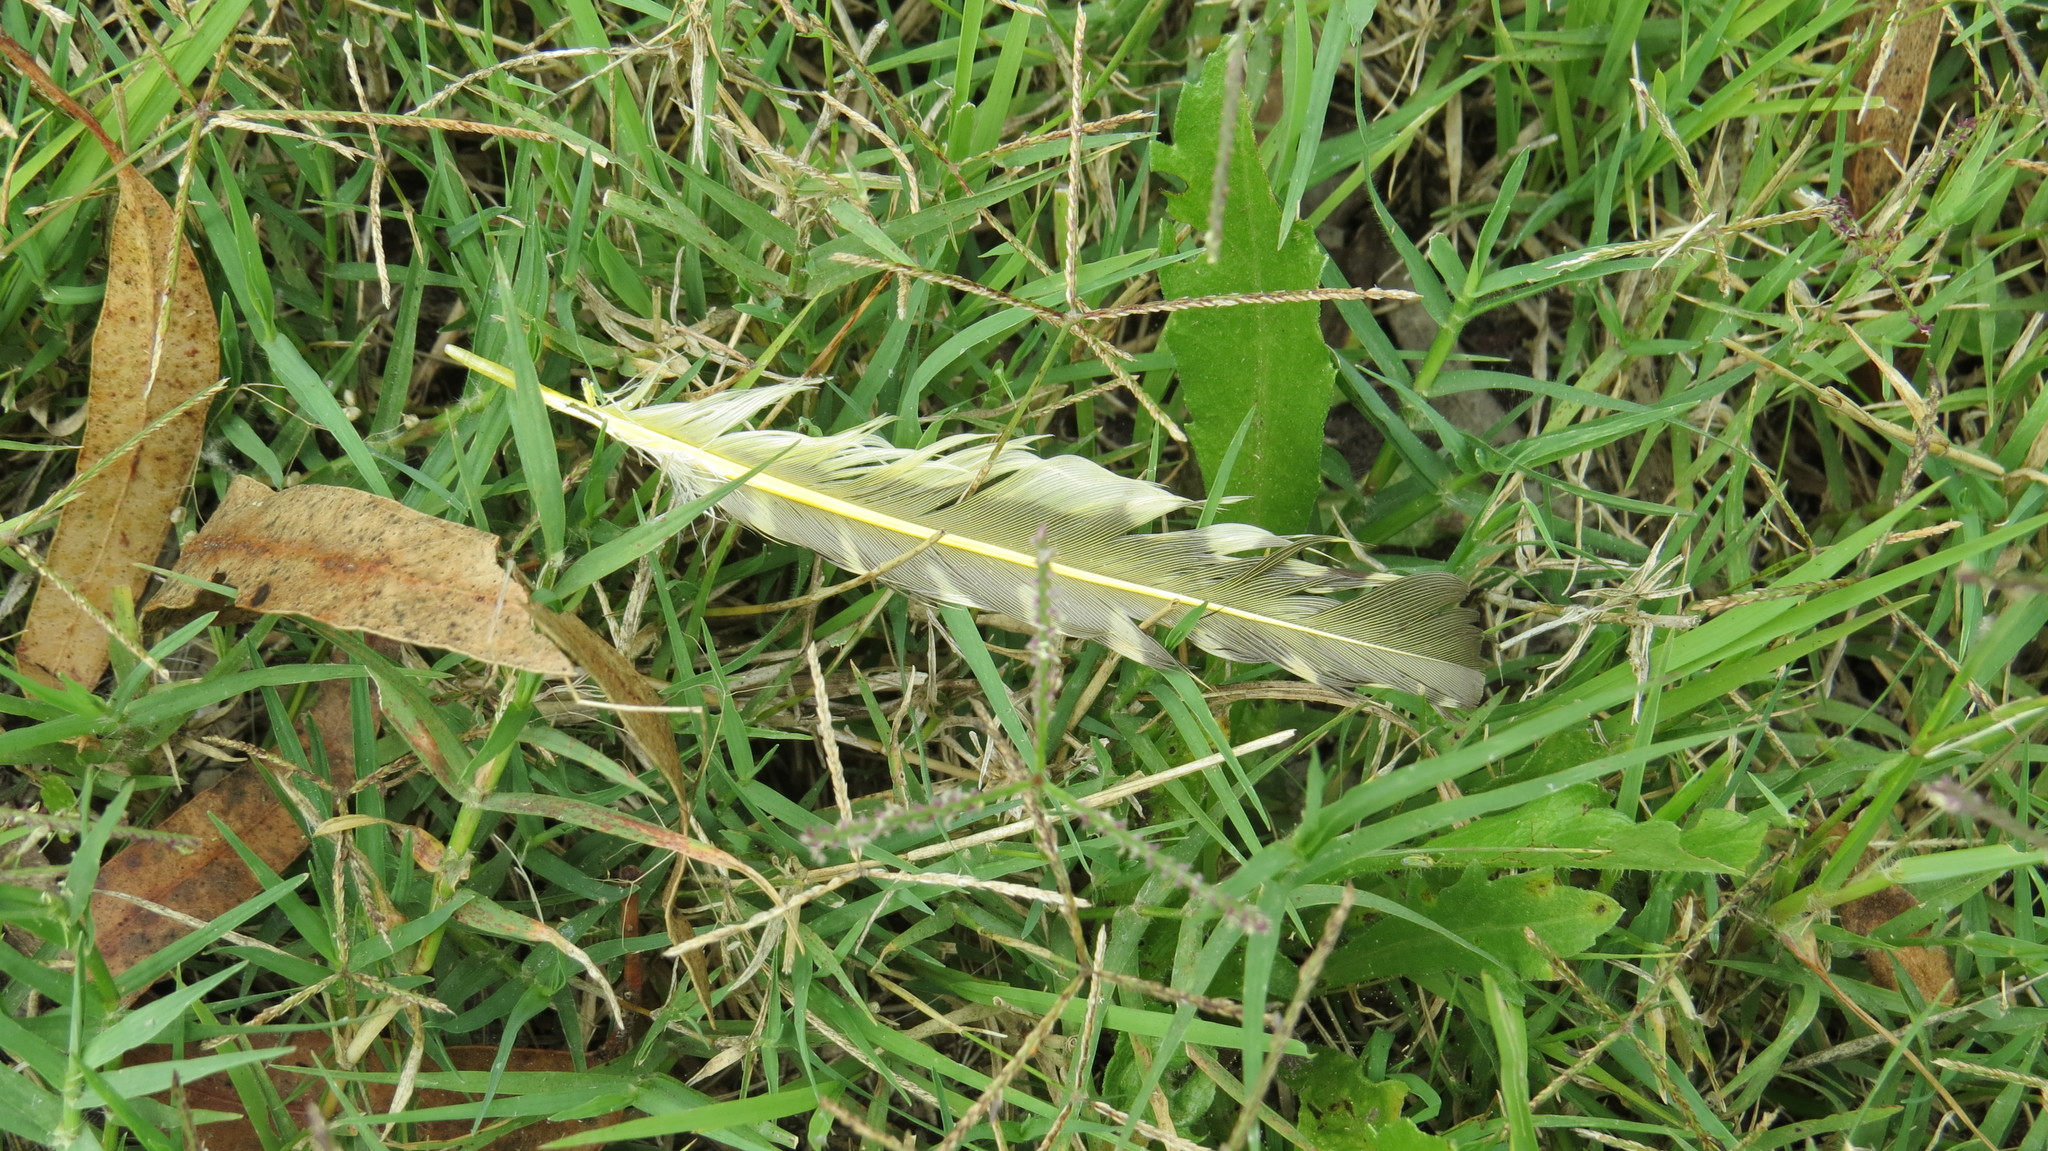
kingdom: Animalia
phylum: Chordata
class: Aves
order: Piciformes
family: Picidae
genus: Colaptes
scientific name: Colaptes melanochloros
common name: Green-barred woodpecker
